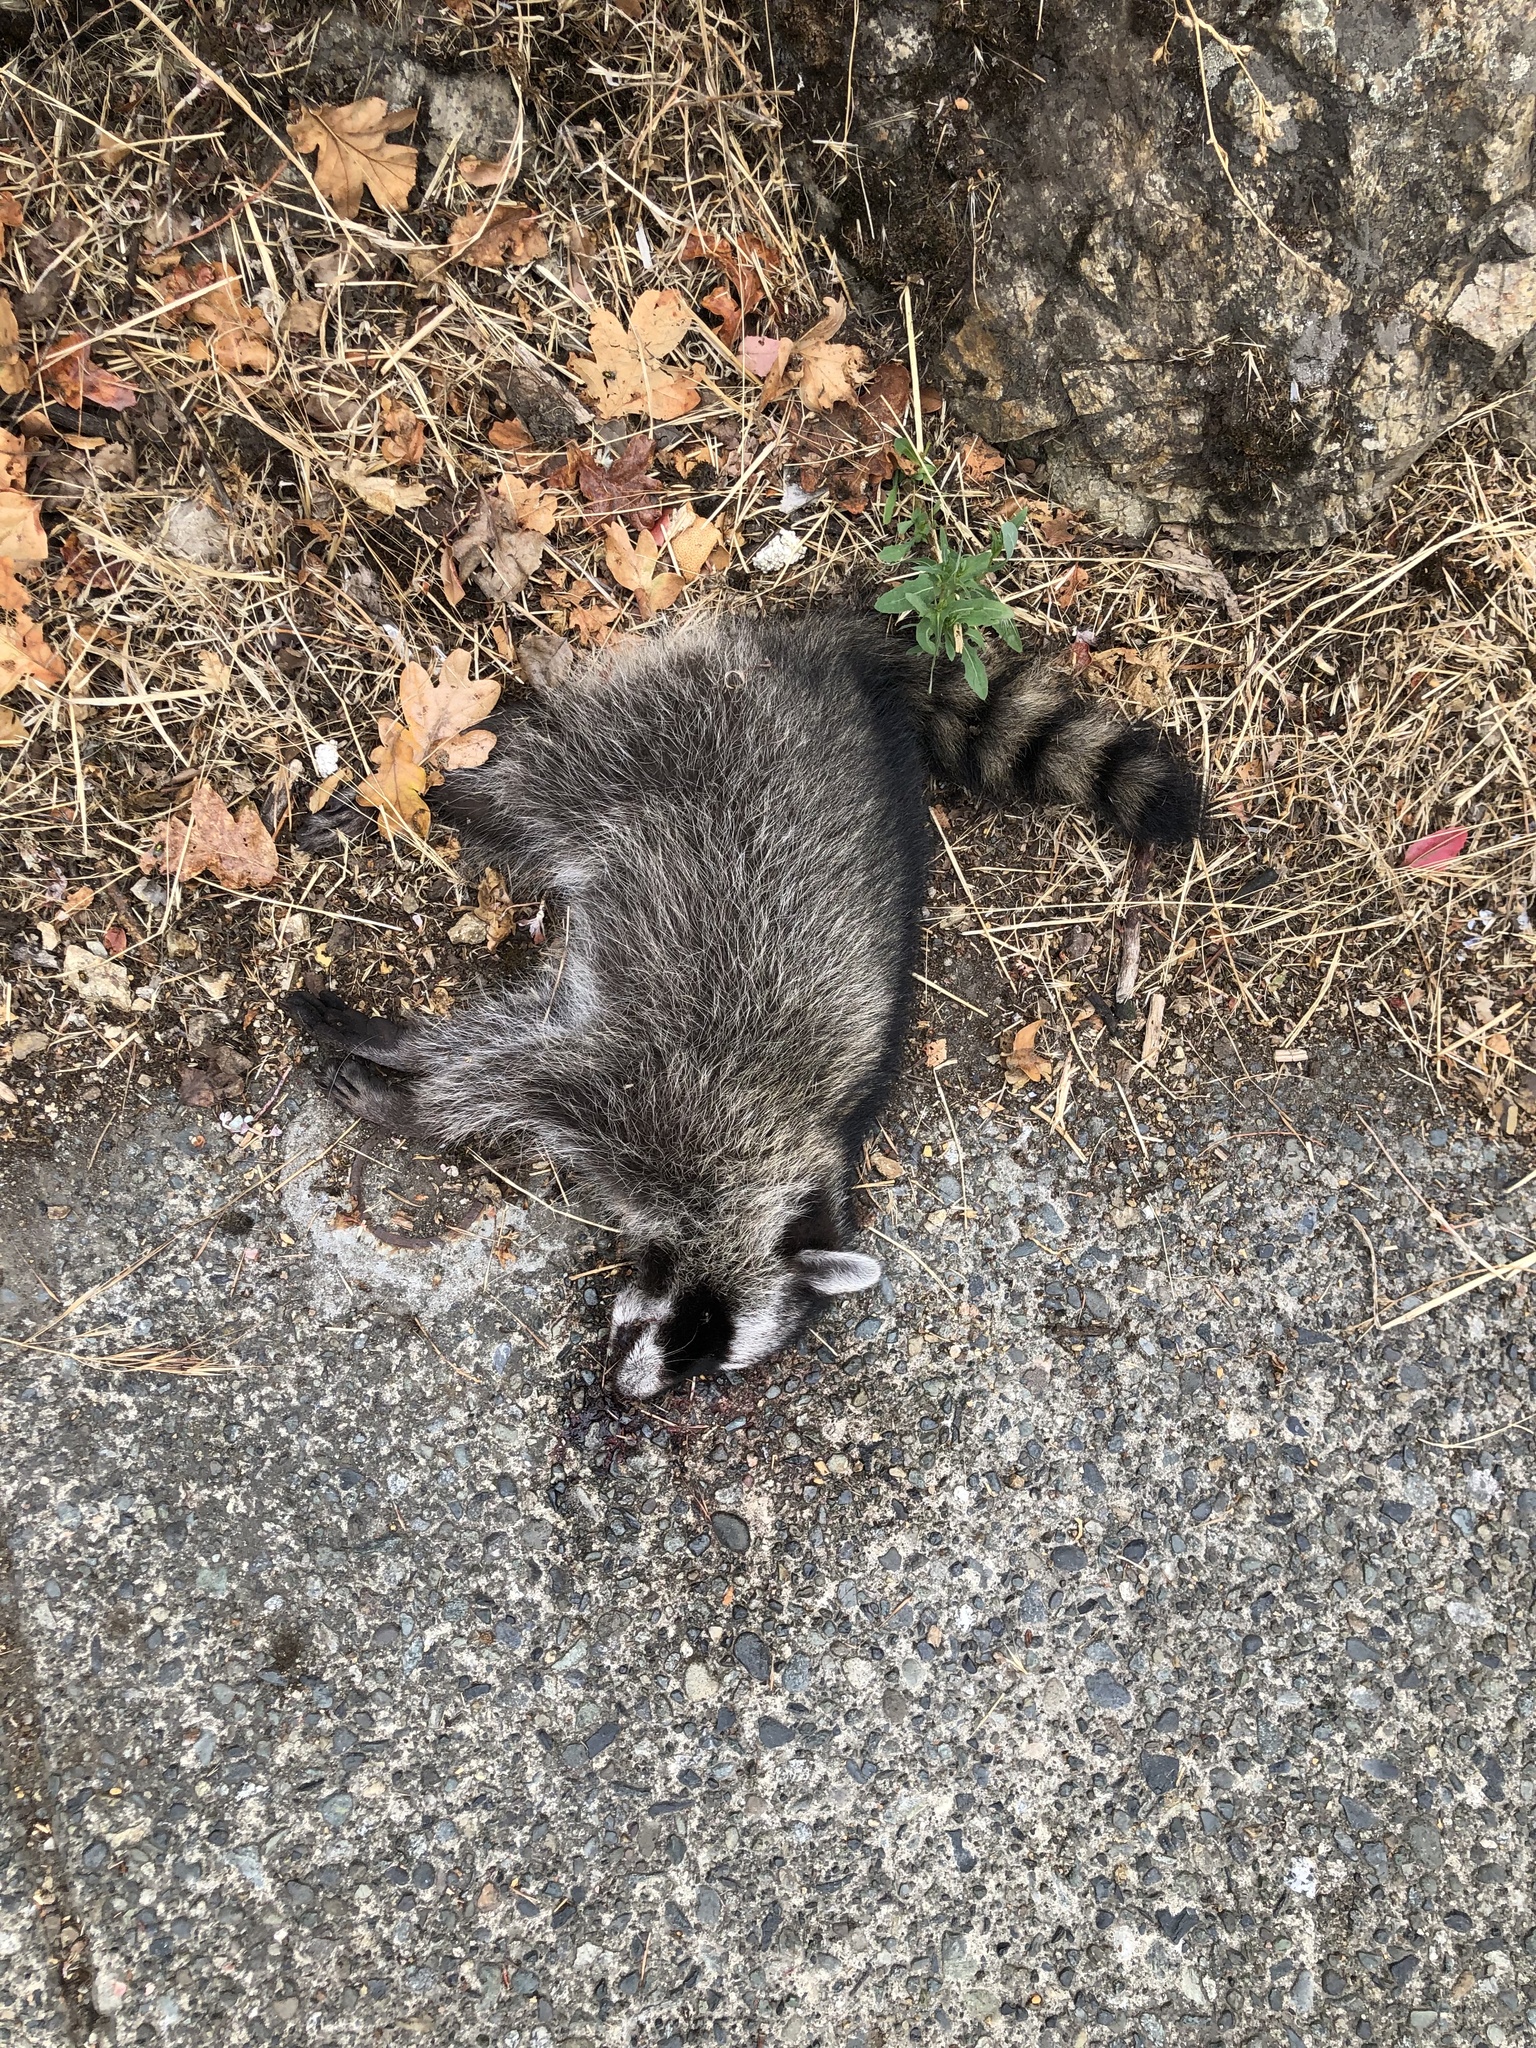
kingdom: Animalia
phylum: Chordata
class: Mammalia
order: Carnivora
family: Procyonidae
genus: Procyon
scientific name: Procyon lotor
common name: Raccoon
